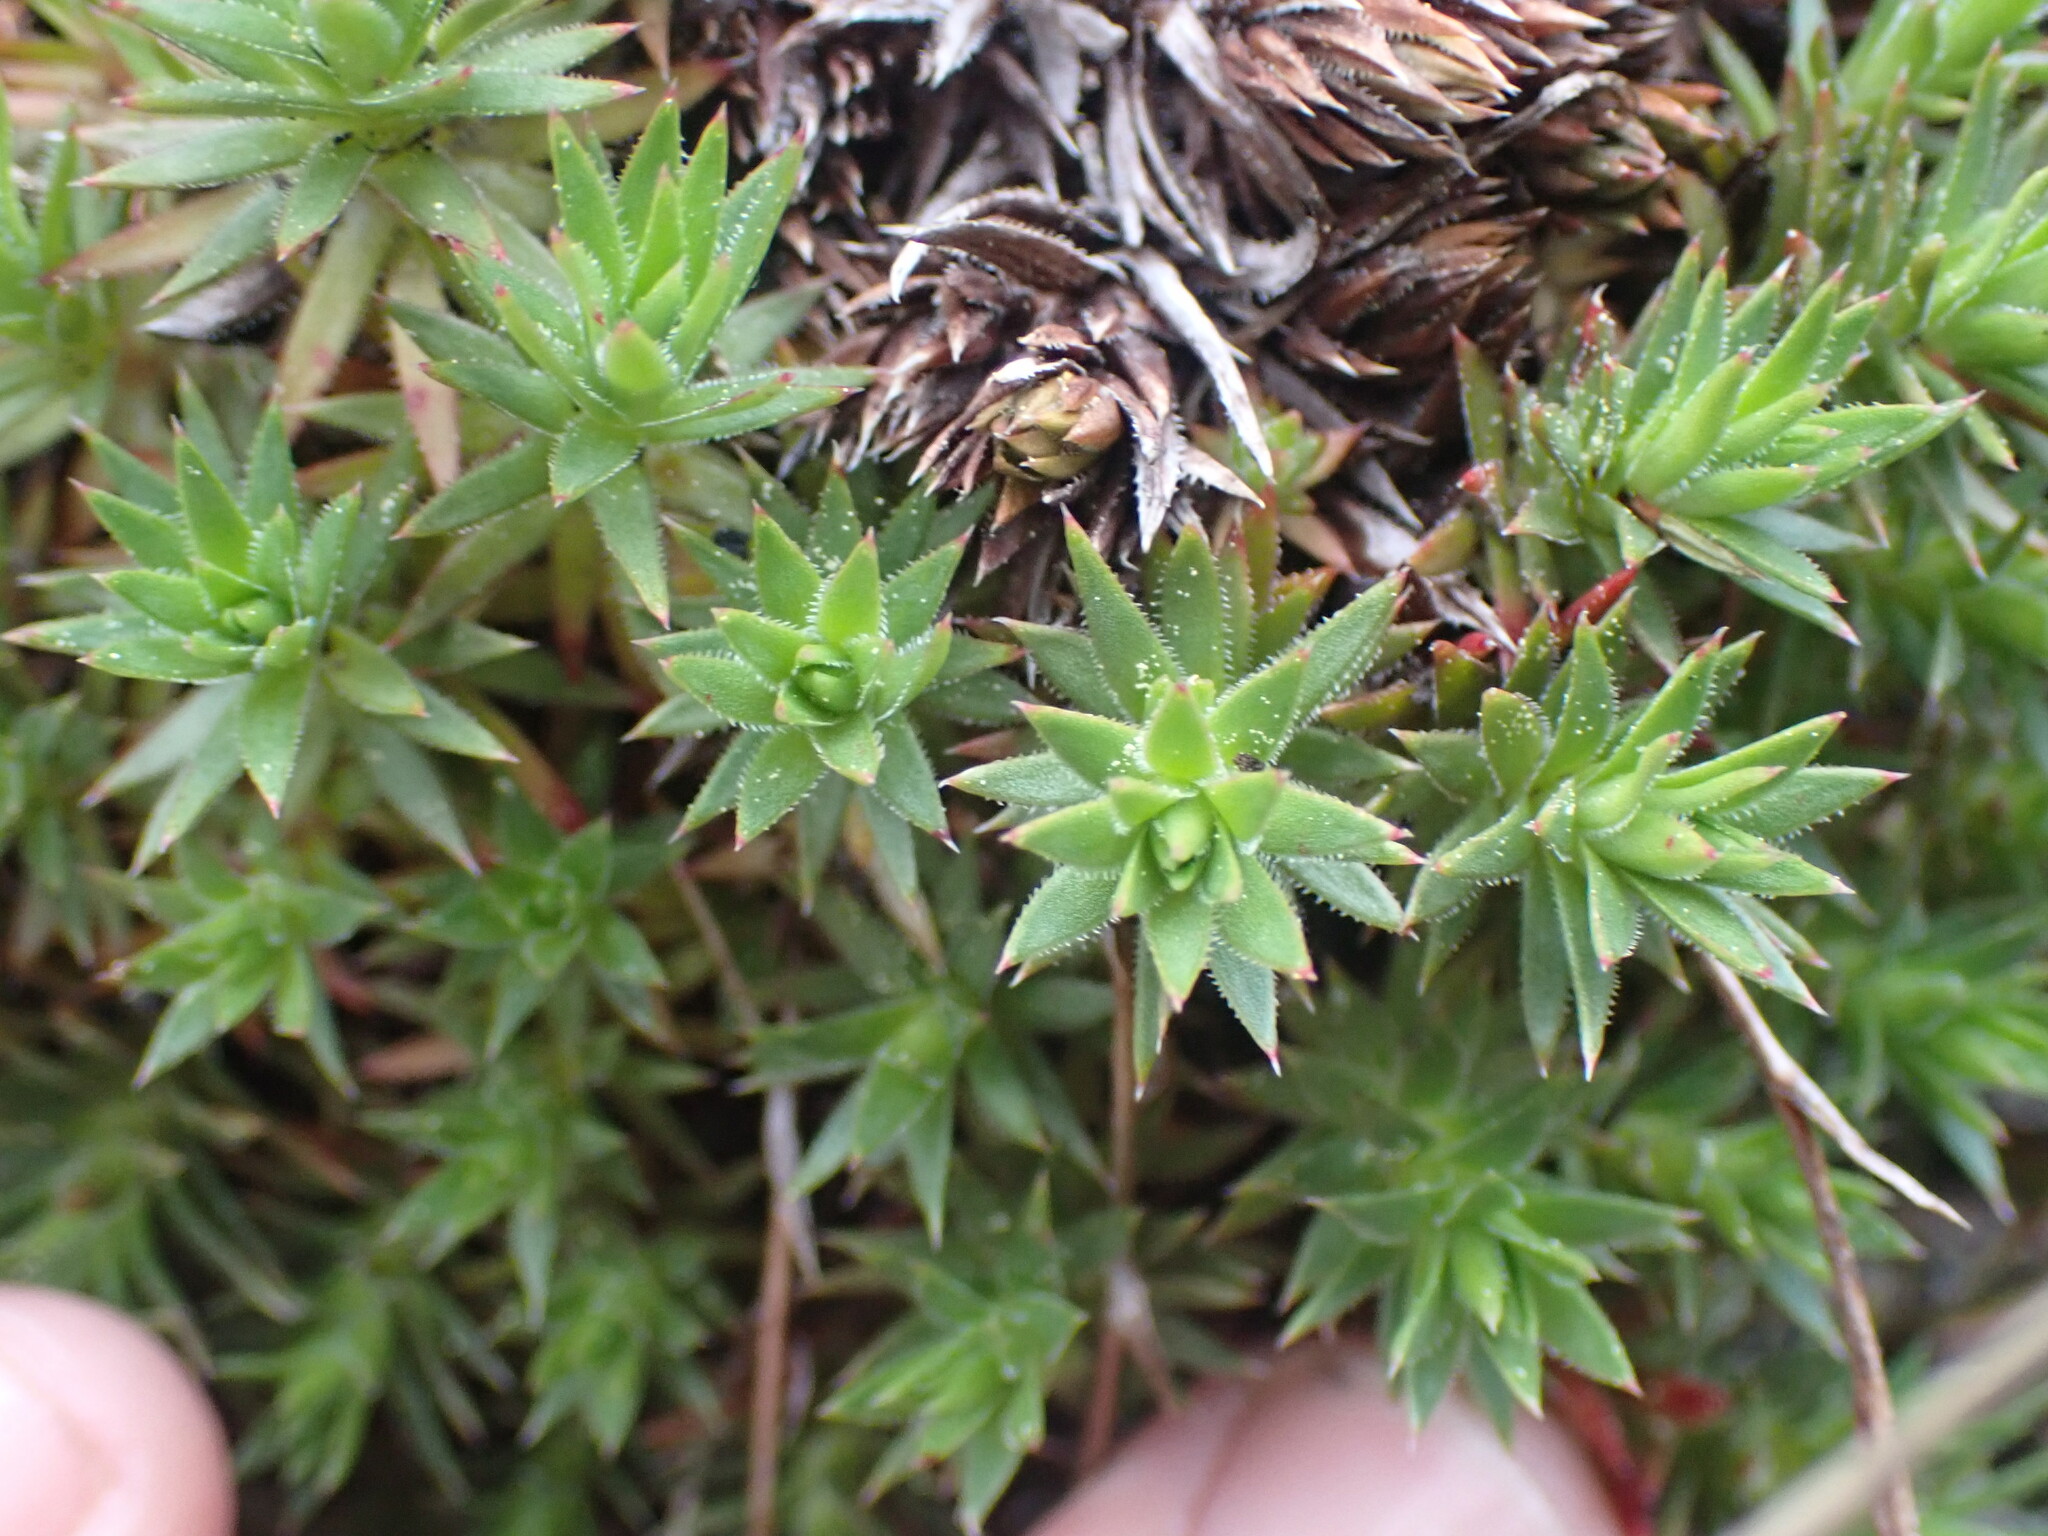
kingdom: Plantae
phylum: Tracheophyta
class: Magnoliopsida
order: Saxifragales
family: Saxifragaceae
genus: Saxifraga
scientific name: Saxifraga bronchialis
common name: Matted saxifrage
